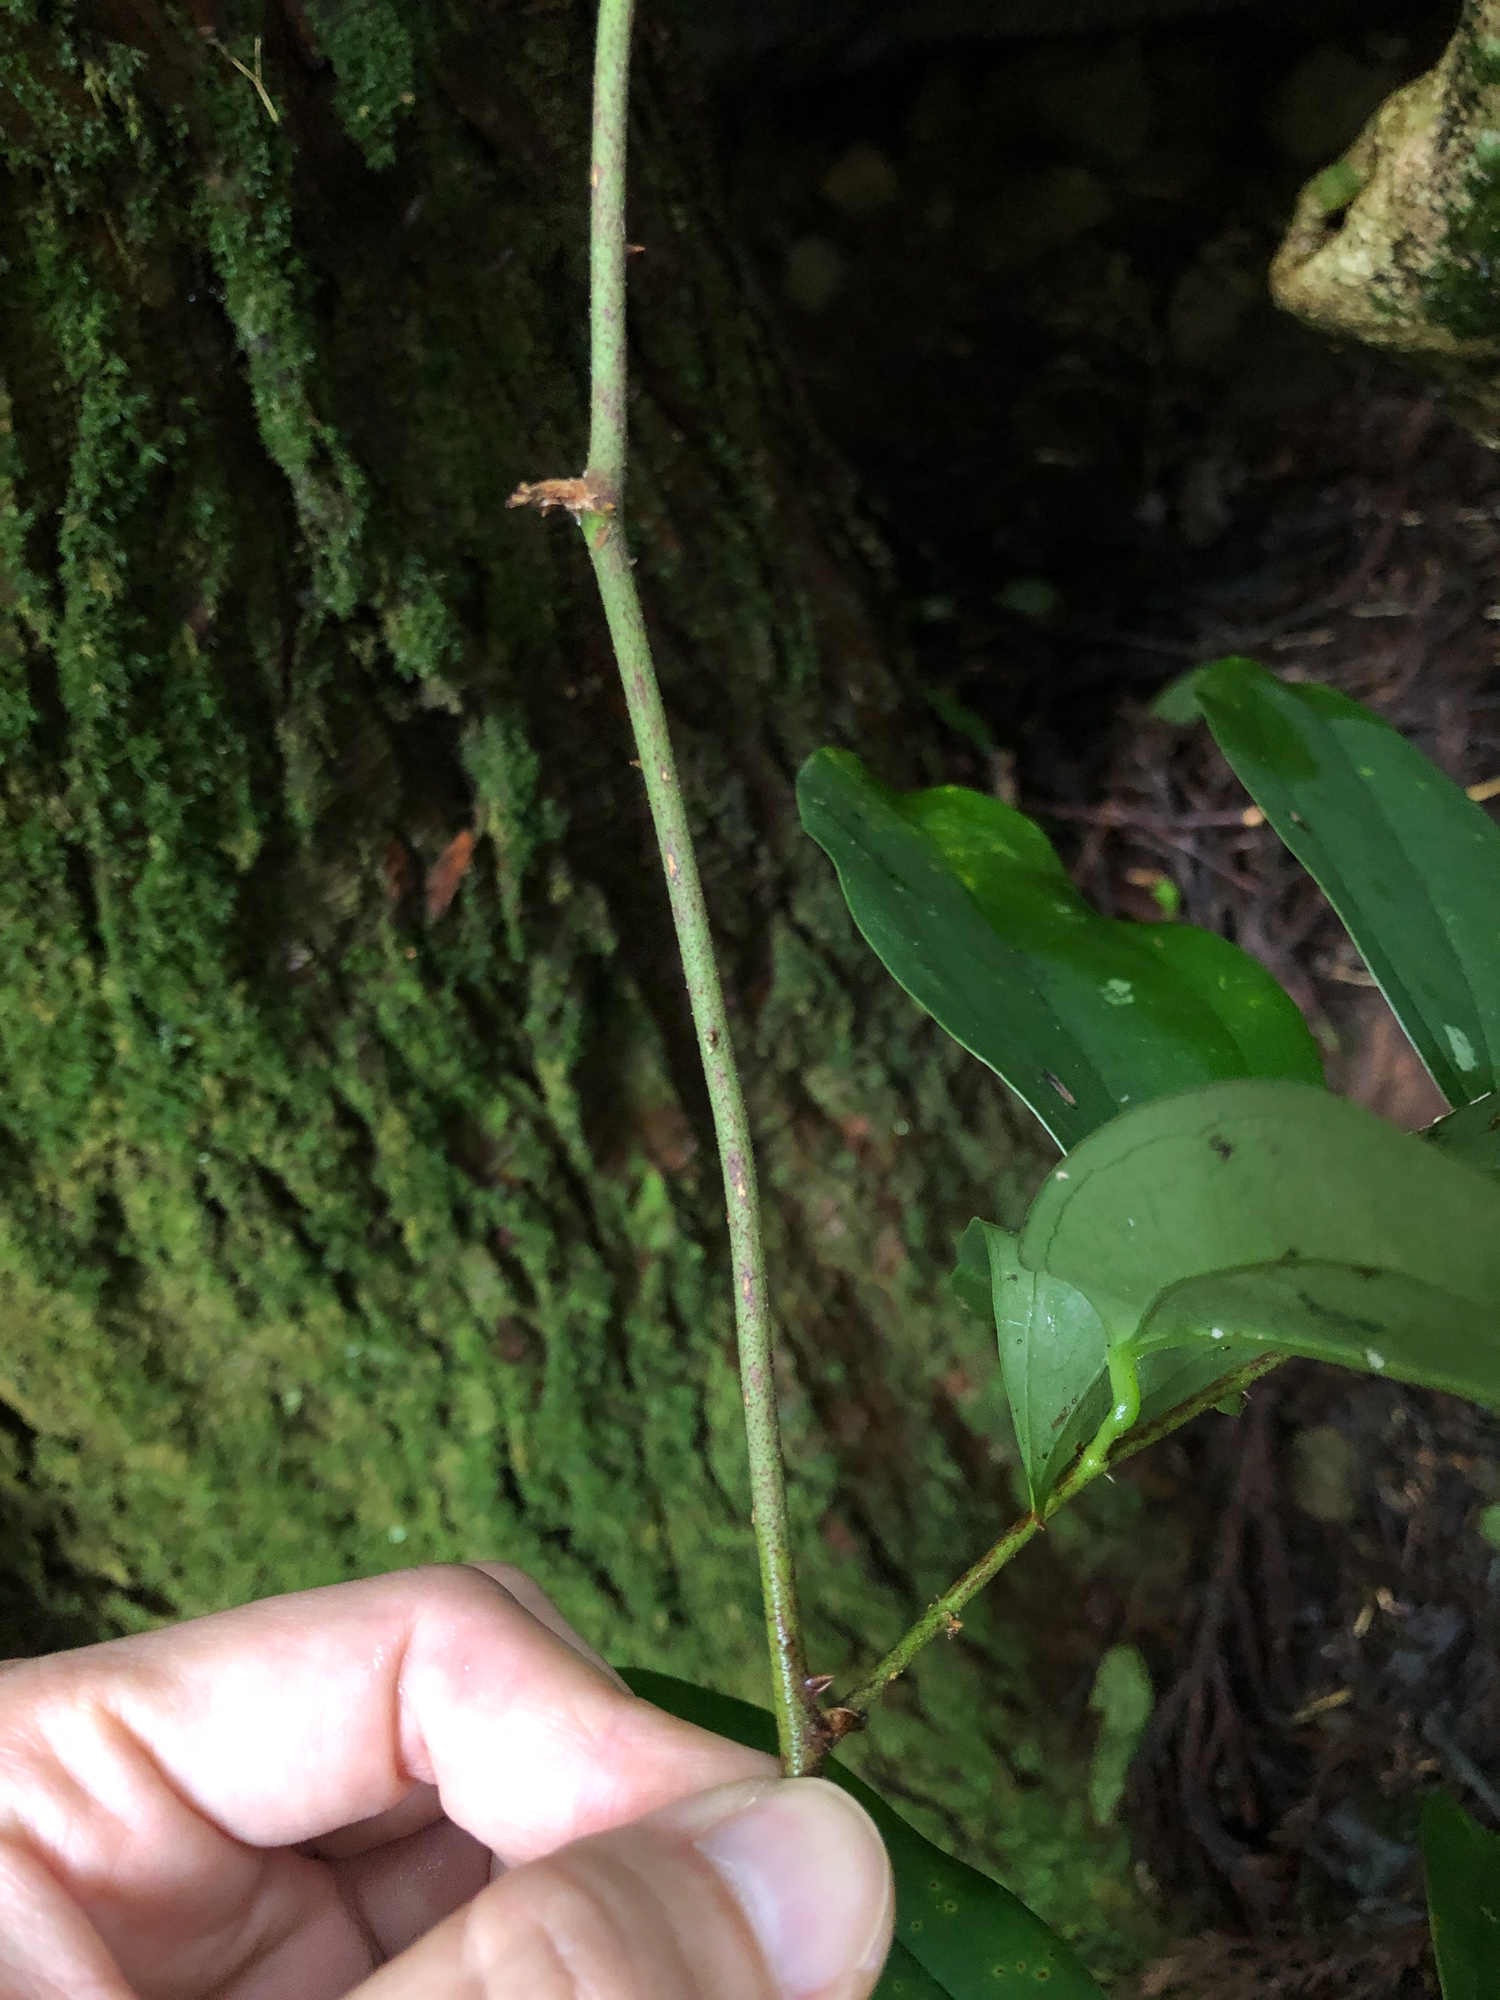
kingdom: Plantae
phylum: Tracheophyta
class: Liliopsida
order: Liliales
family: Smilacaceae
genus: Smilax
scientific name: Smilax aspericaulis
